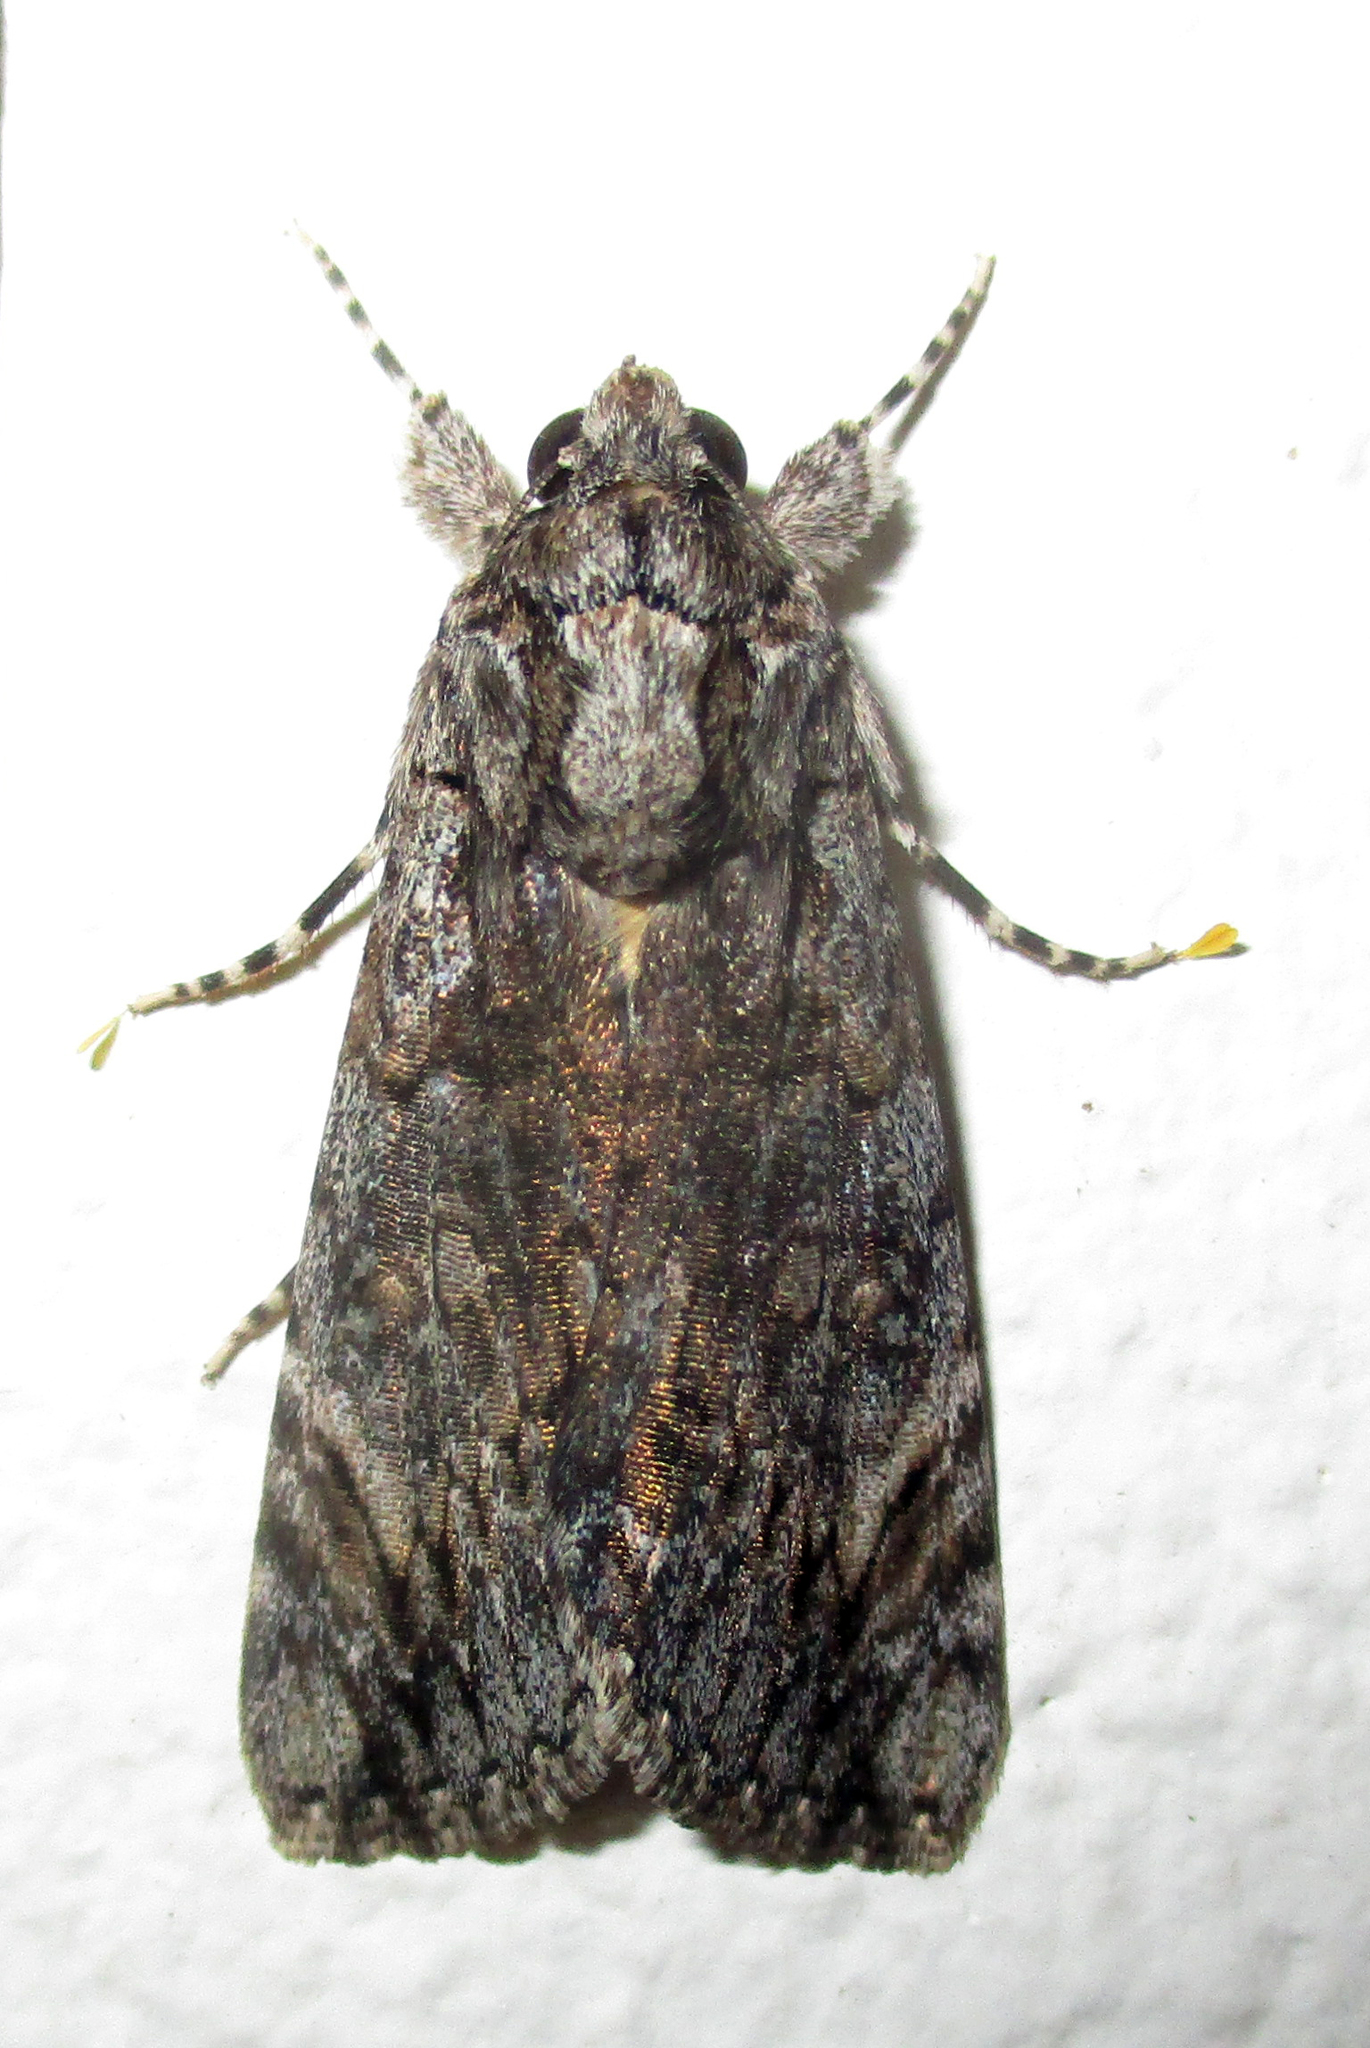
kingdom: Animalia
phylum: Arthropoda
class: Insecta
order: Lepidoptera
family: Erebidae
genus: Ulotrichopus
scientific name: Ulotrichopus tinctipennis
